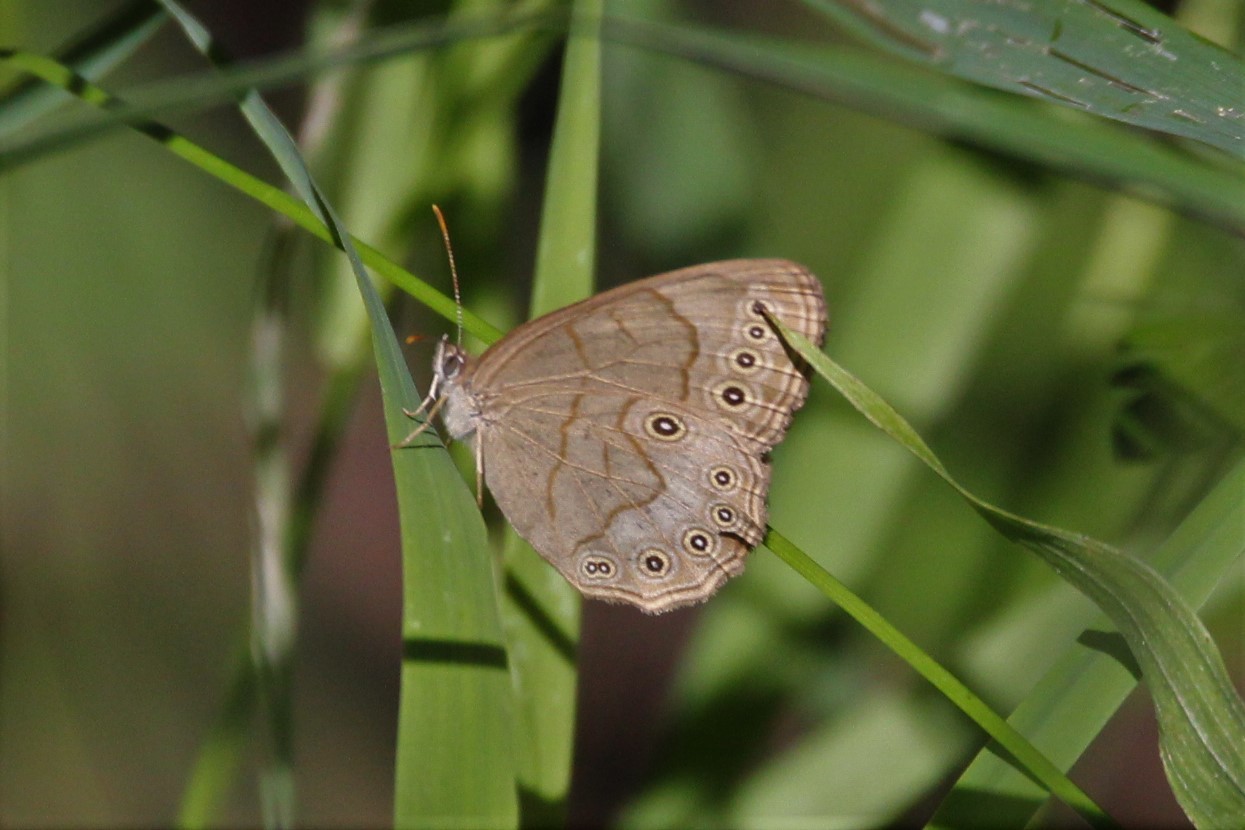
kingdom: Animalia
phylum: Arthropoda
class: Insecta
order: Lepidoptera
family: Nymphalidae
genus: Lethe
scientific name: Lethe eurydice
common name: Eyed brown
